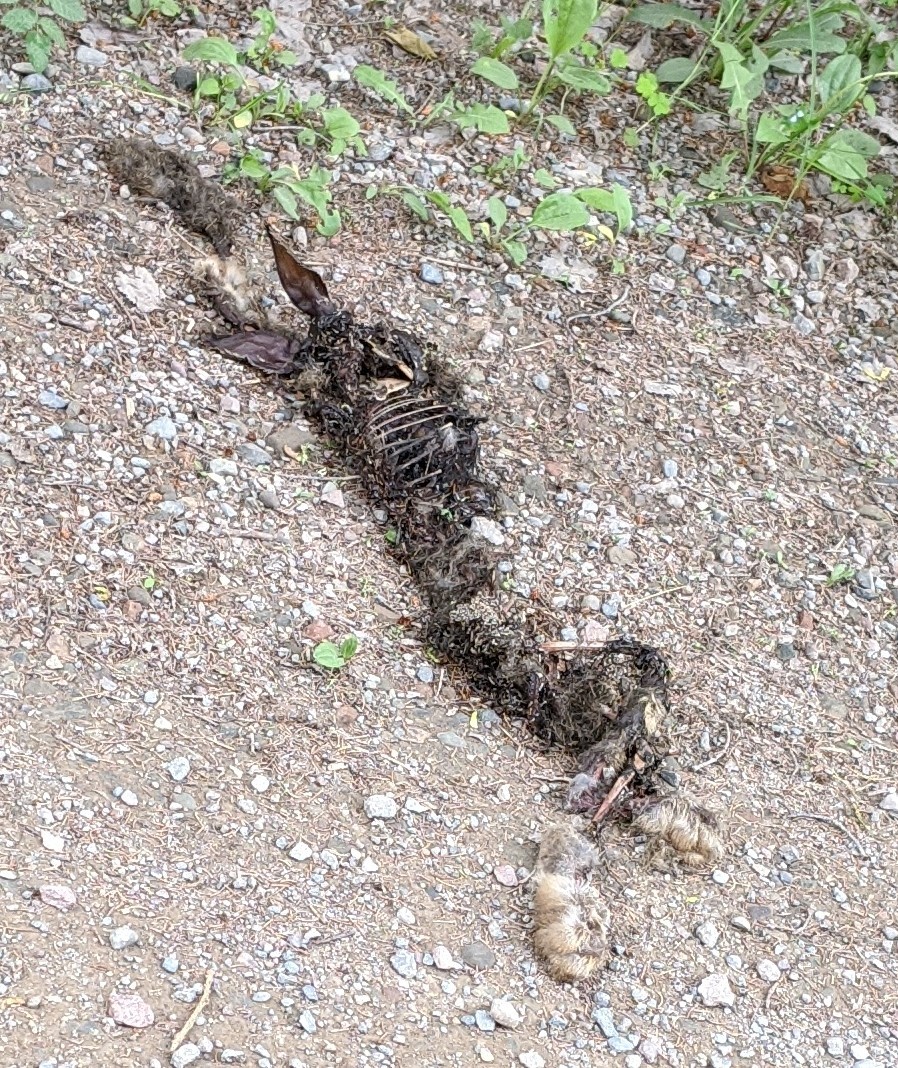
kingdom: Animalia
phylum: Chordata
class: Mammalia
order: Lagomorpha
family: Leporidae
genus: Lepus
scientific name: Lepus americanus
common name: Snowshoe hare
